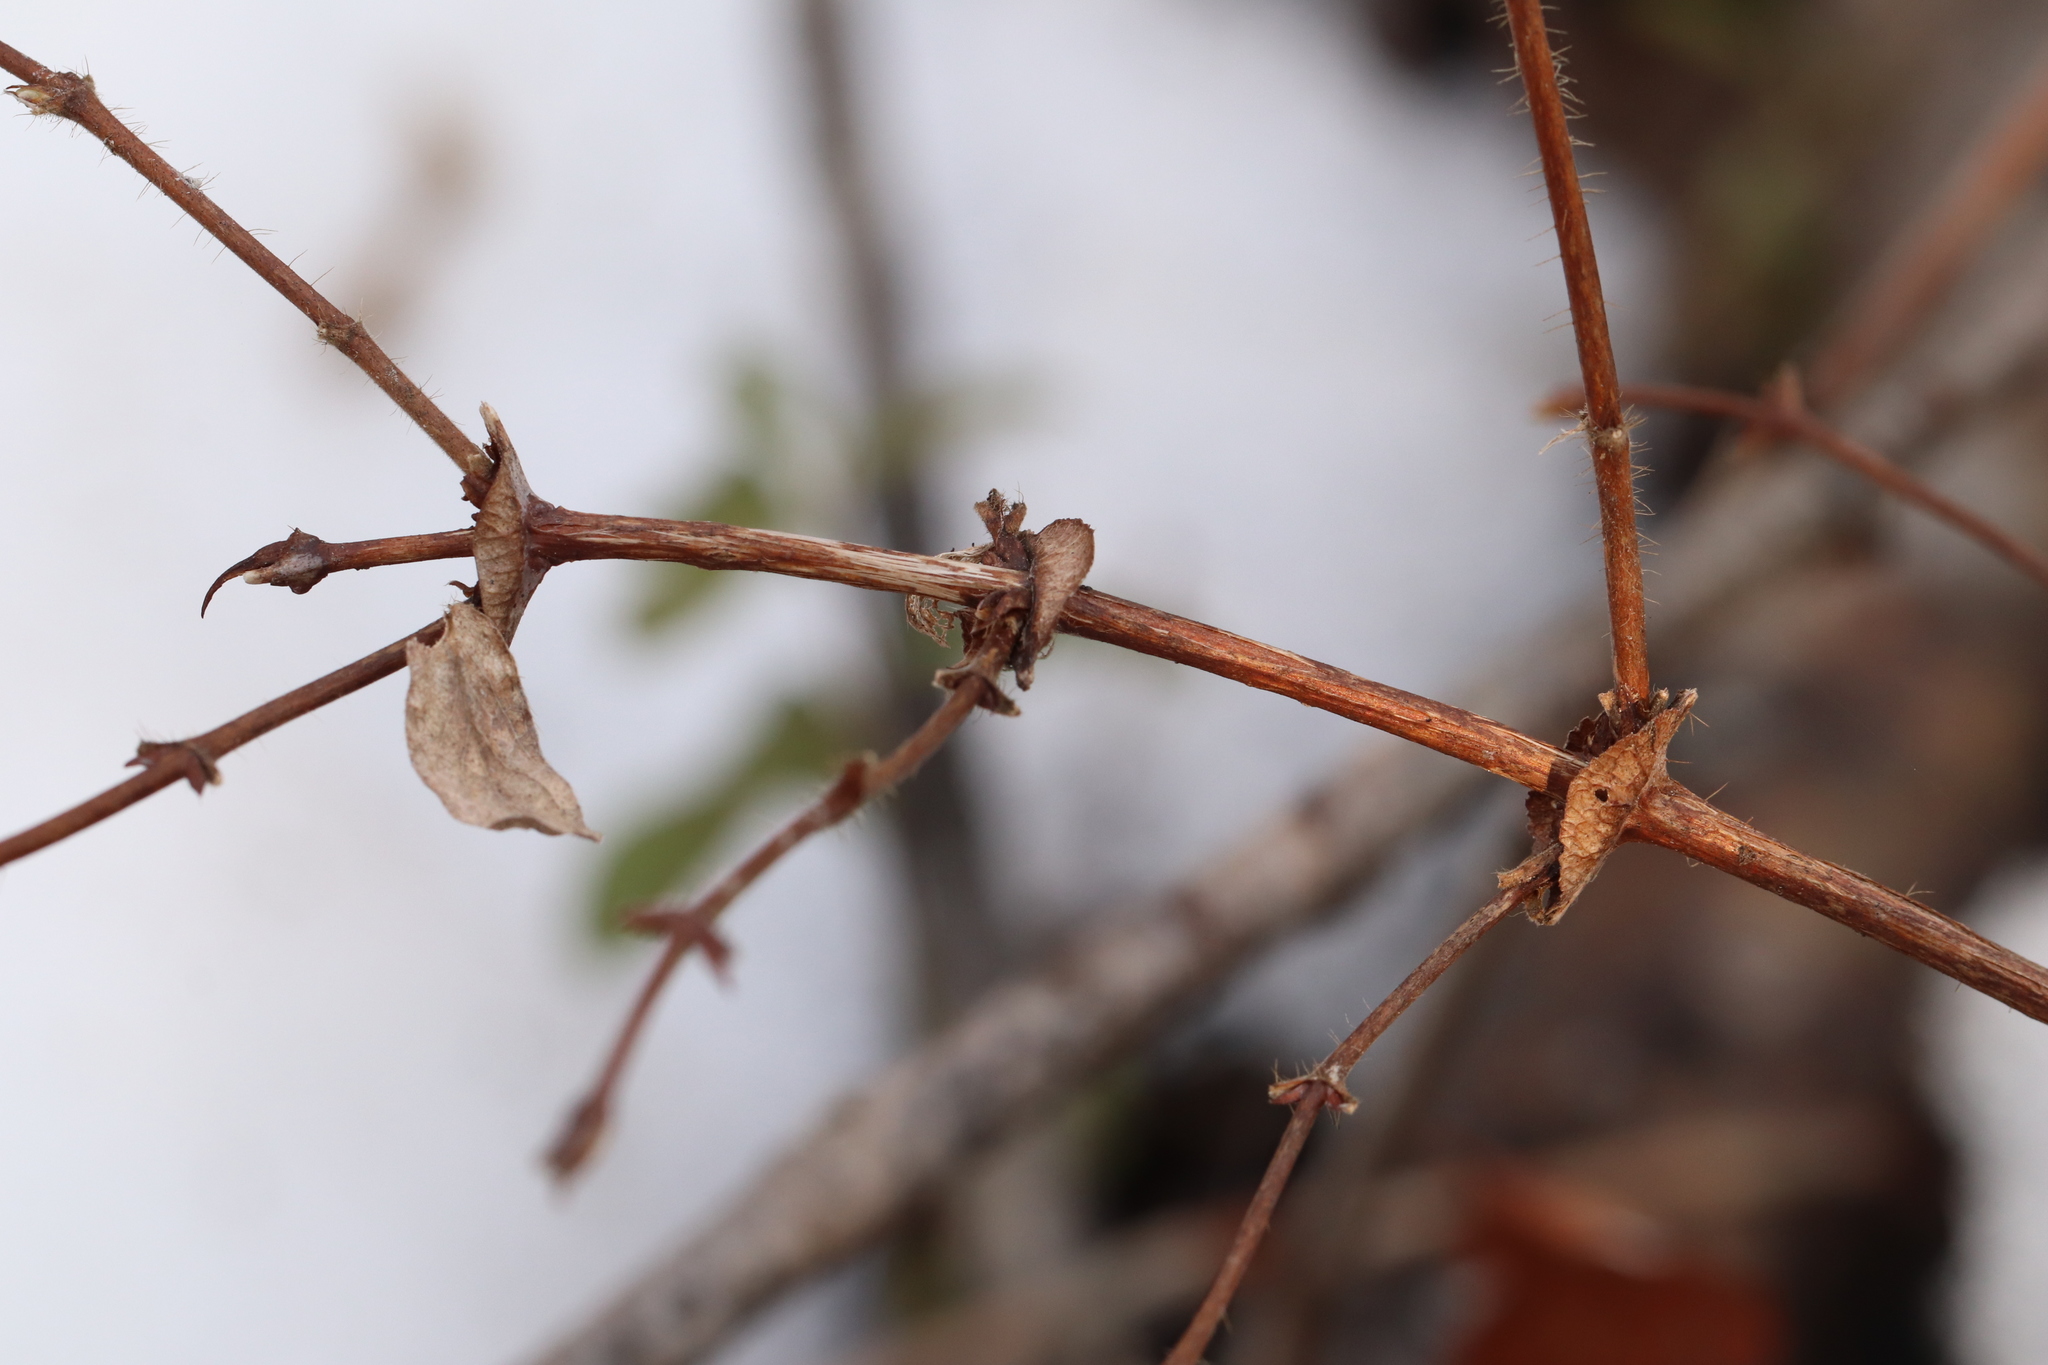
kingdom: Plantae
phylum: Tracheophyta
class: Magnoliopsida
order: Dipsacales
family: Caprifoliaceae
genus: Lonicera
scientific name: Lonicera caerulea
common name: Blue honeysuckle
